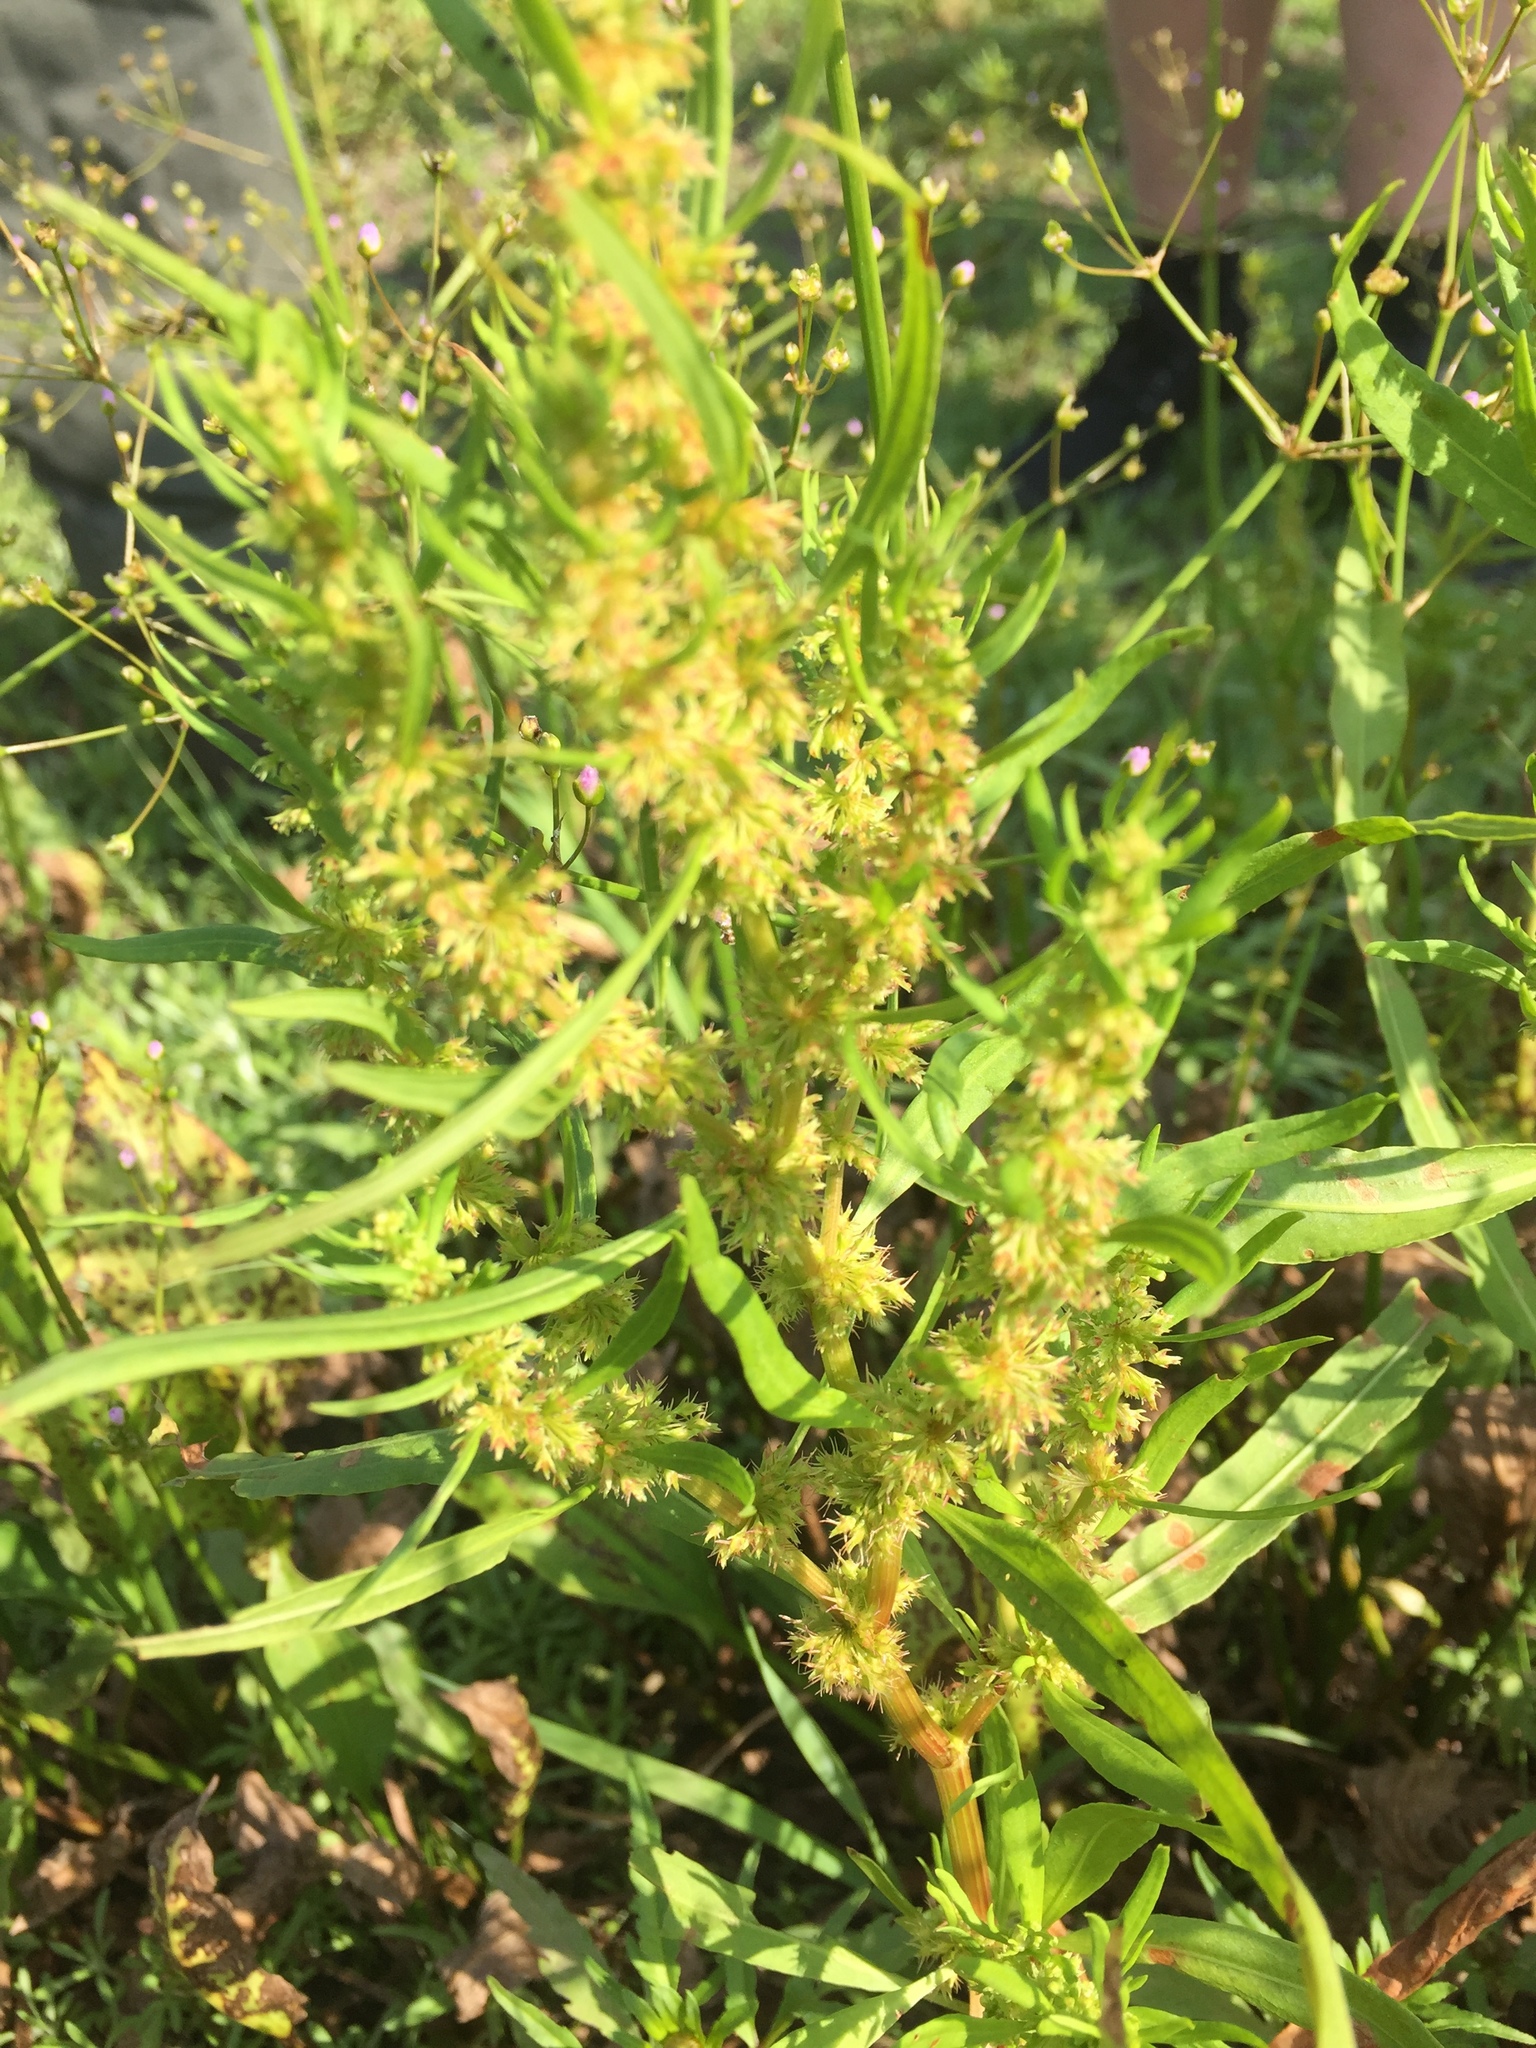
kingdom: Plantae
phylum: Tracheophyta
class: Magnoliopsida
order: Caryophyllales
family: Polygonaceae
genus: Rumex
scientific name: Rumex maritimus
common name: Golden dock
